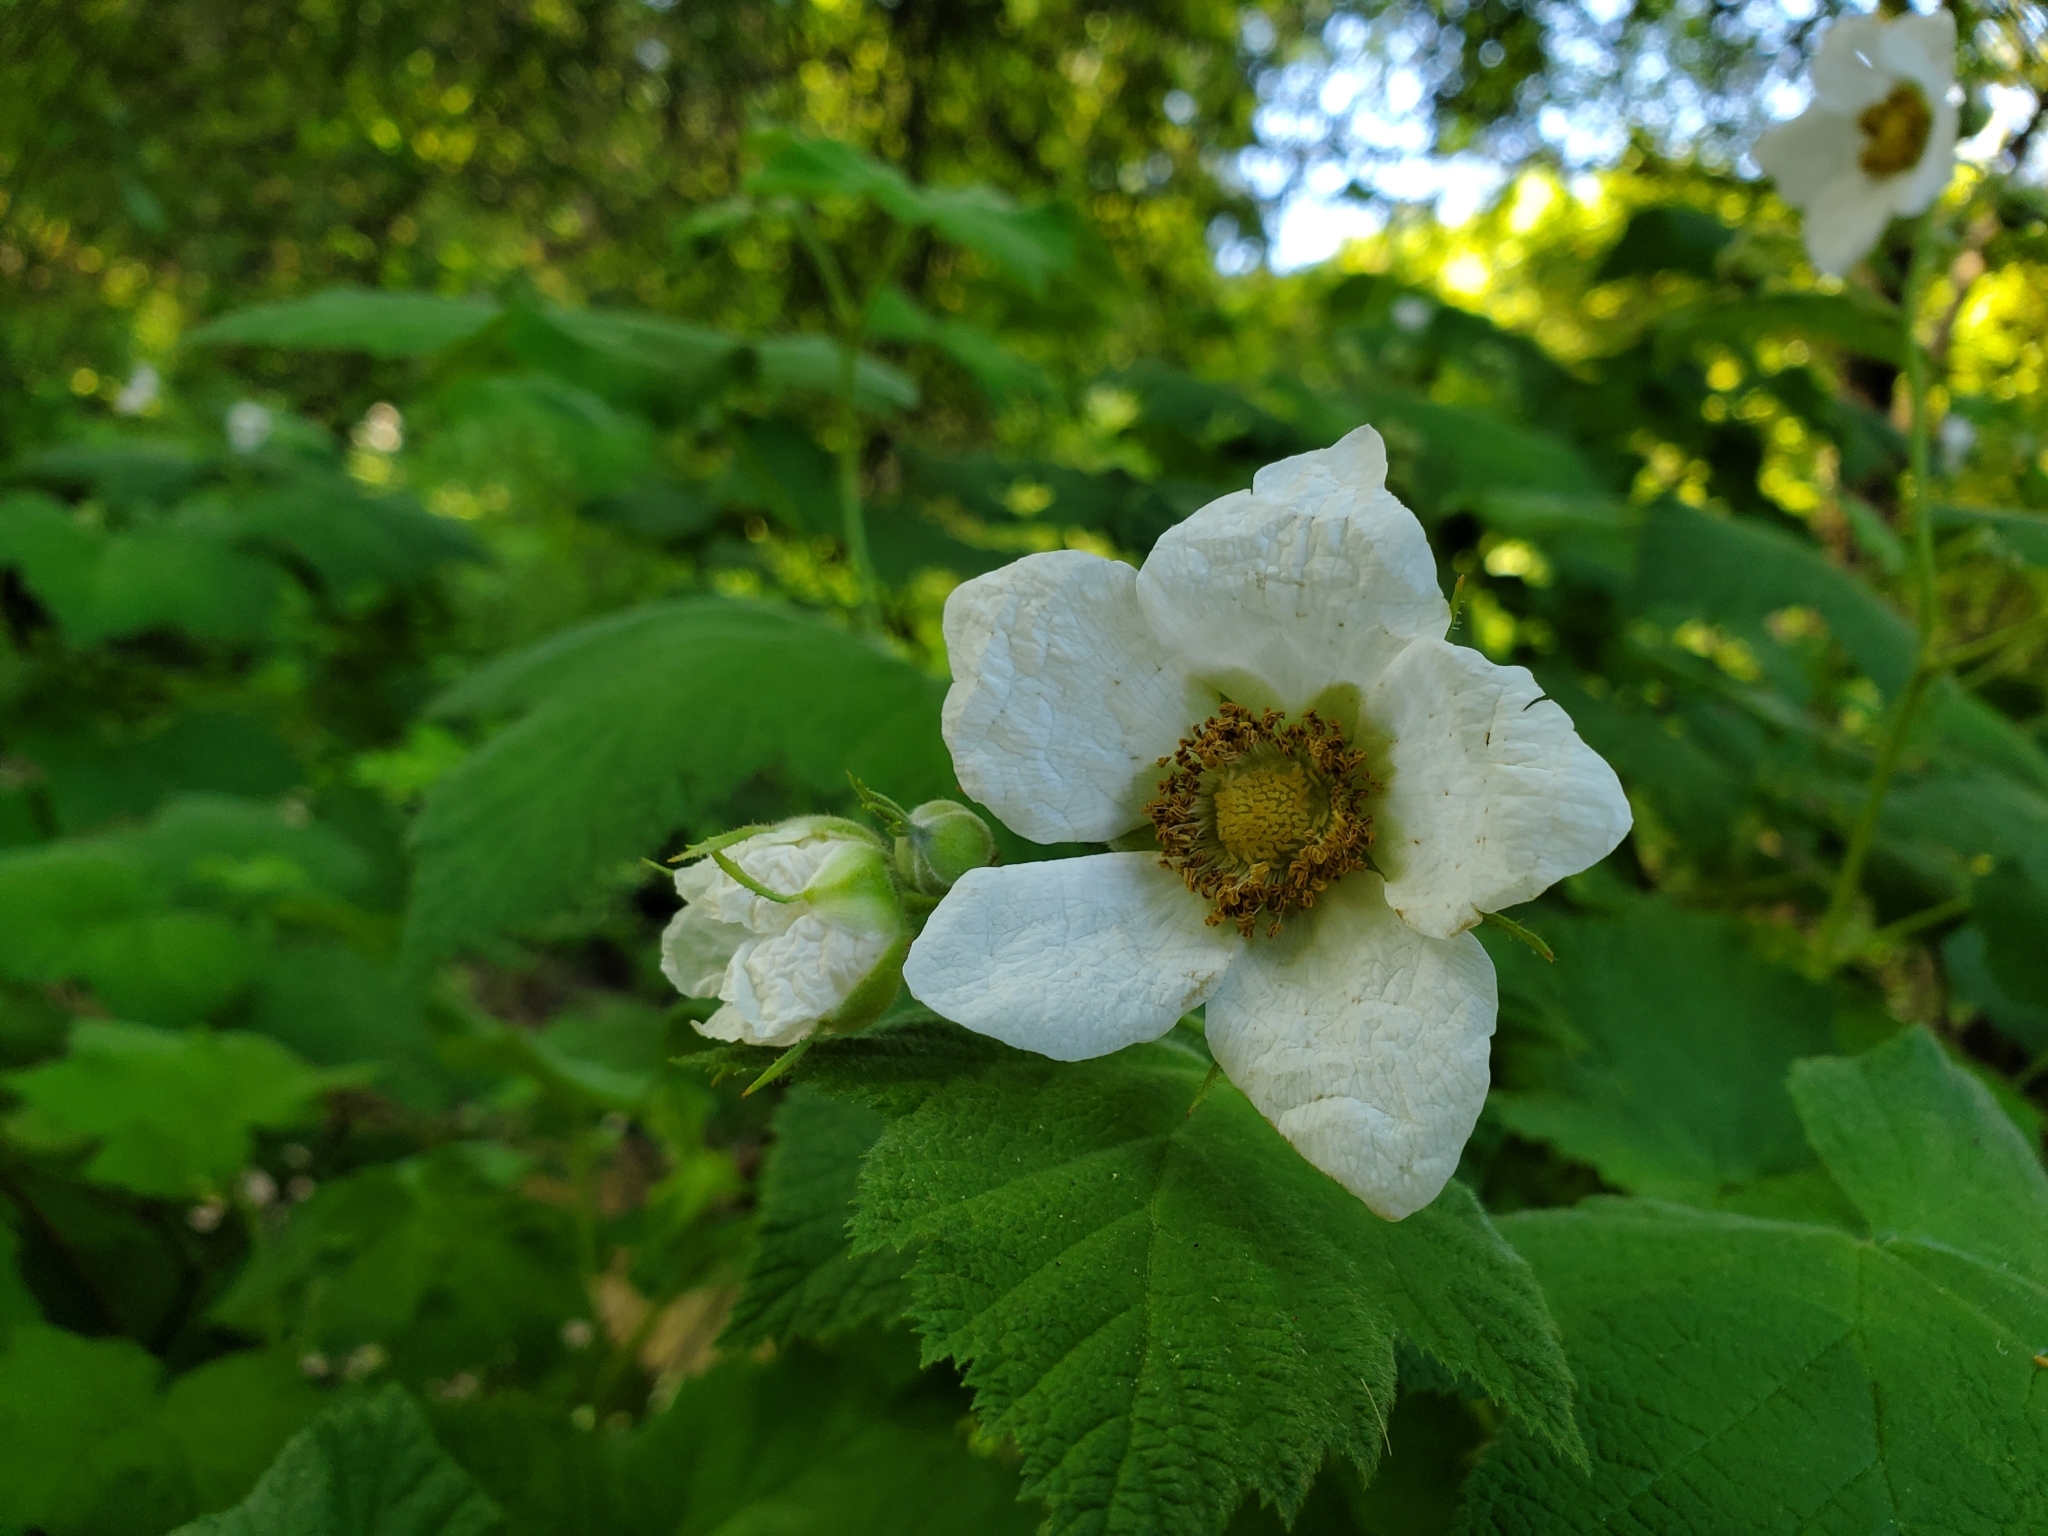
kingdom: Plantae
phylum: Tracheophyta
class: Magnoliopsida
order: Rosales
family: Rosaceae
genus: Rubus
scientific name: Rubus parviflorus
